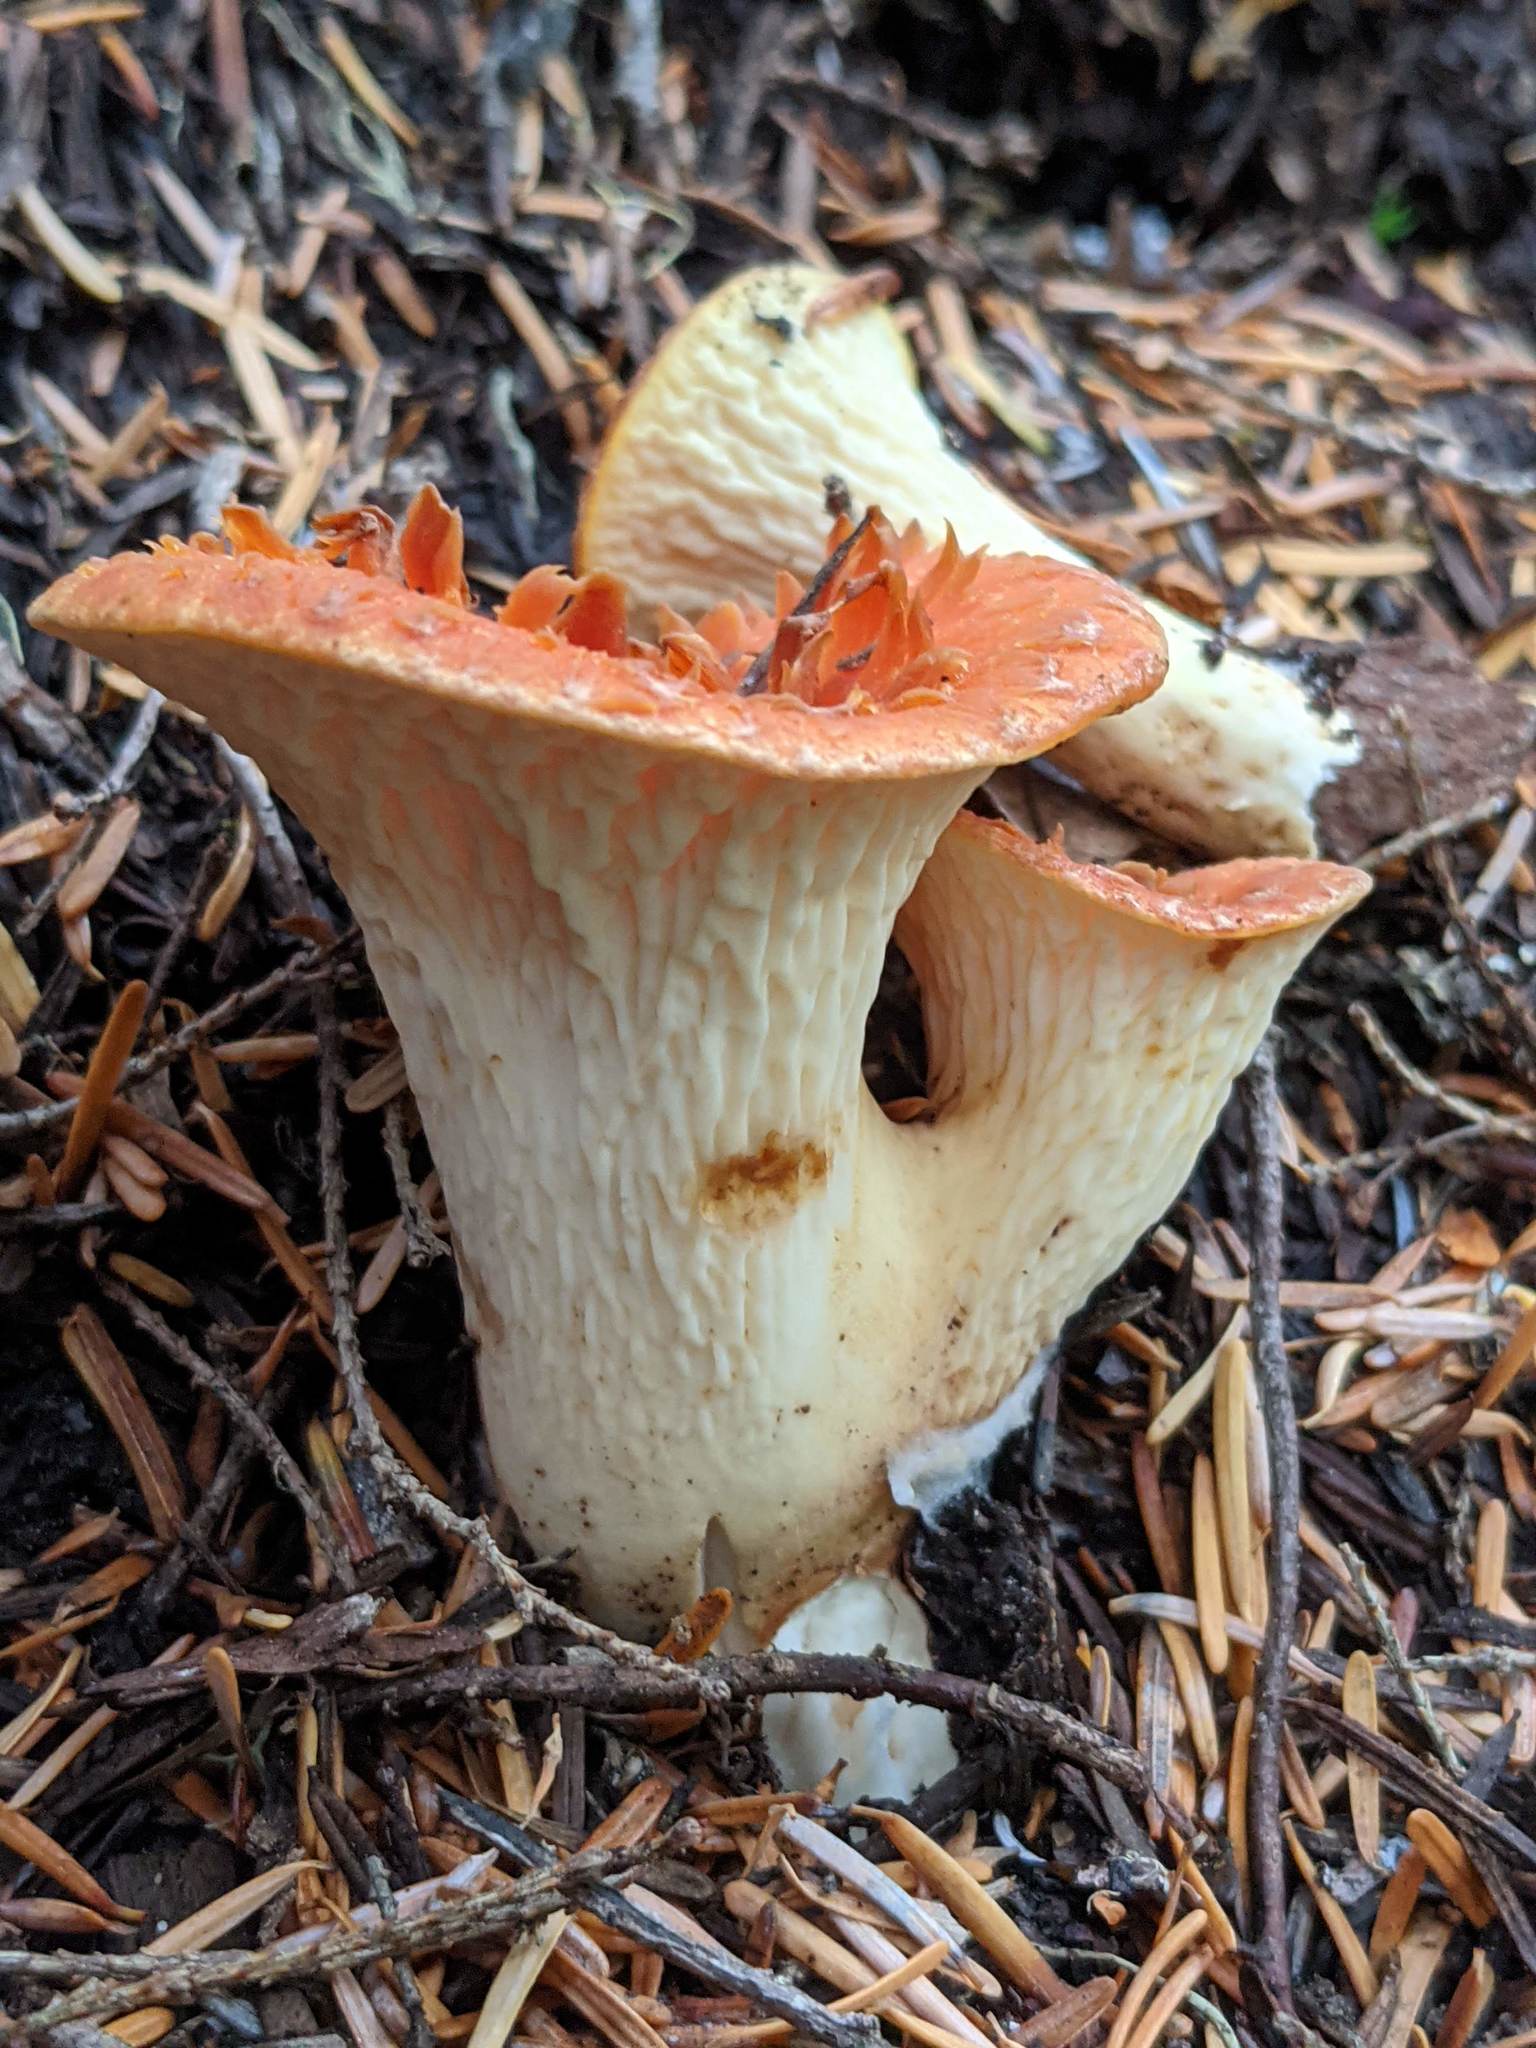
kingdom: Fungi
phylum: Basidiomycota
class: Agaricomycetes
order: Gomphales
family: Gomphaceae
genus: Turbinellus
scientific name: Turbinellus floccosus
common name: Scaly chanterelle
